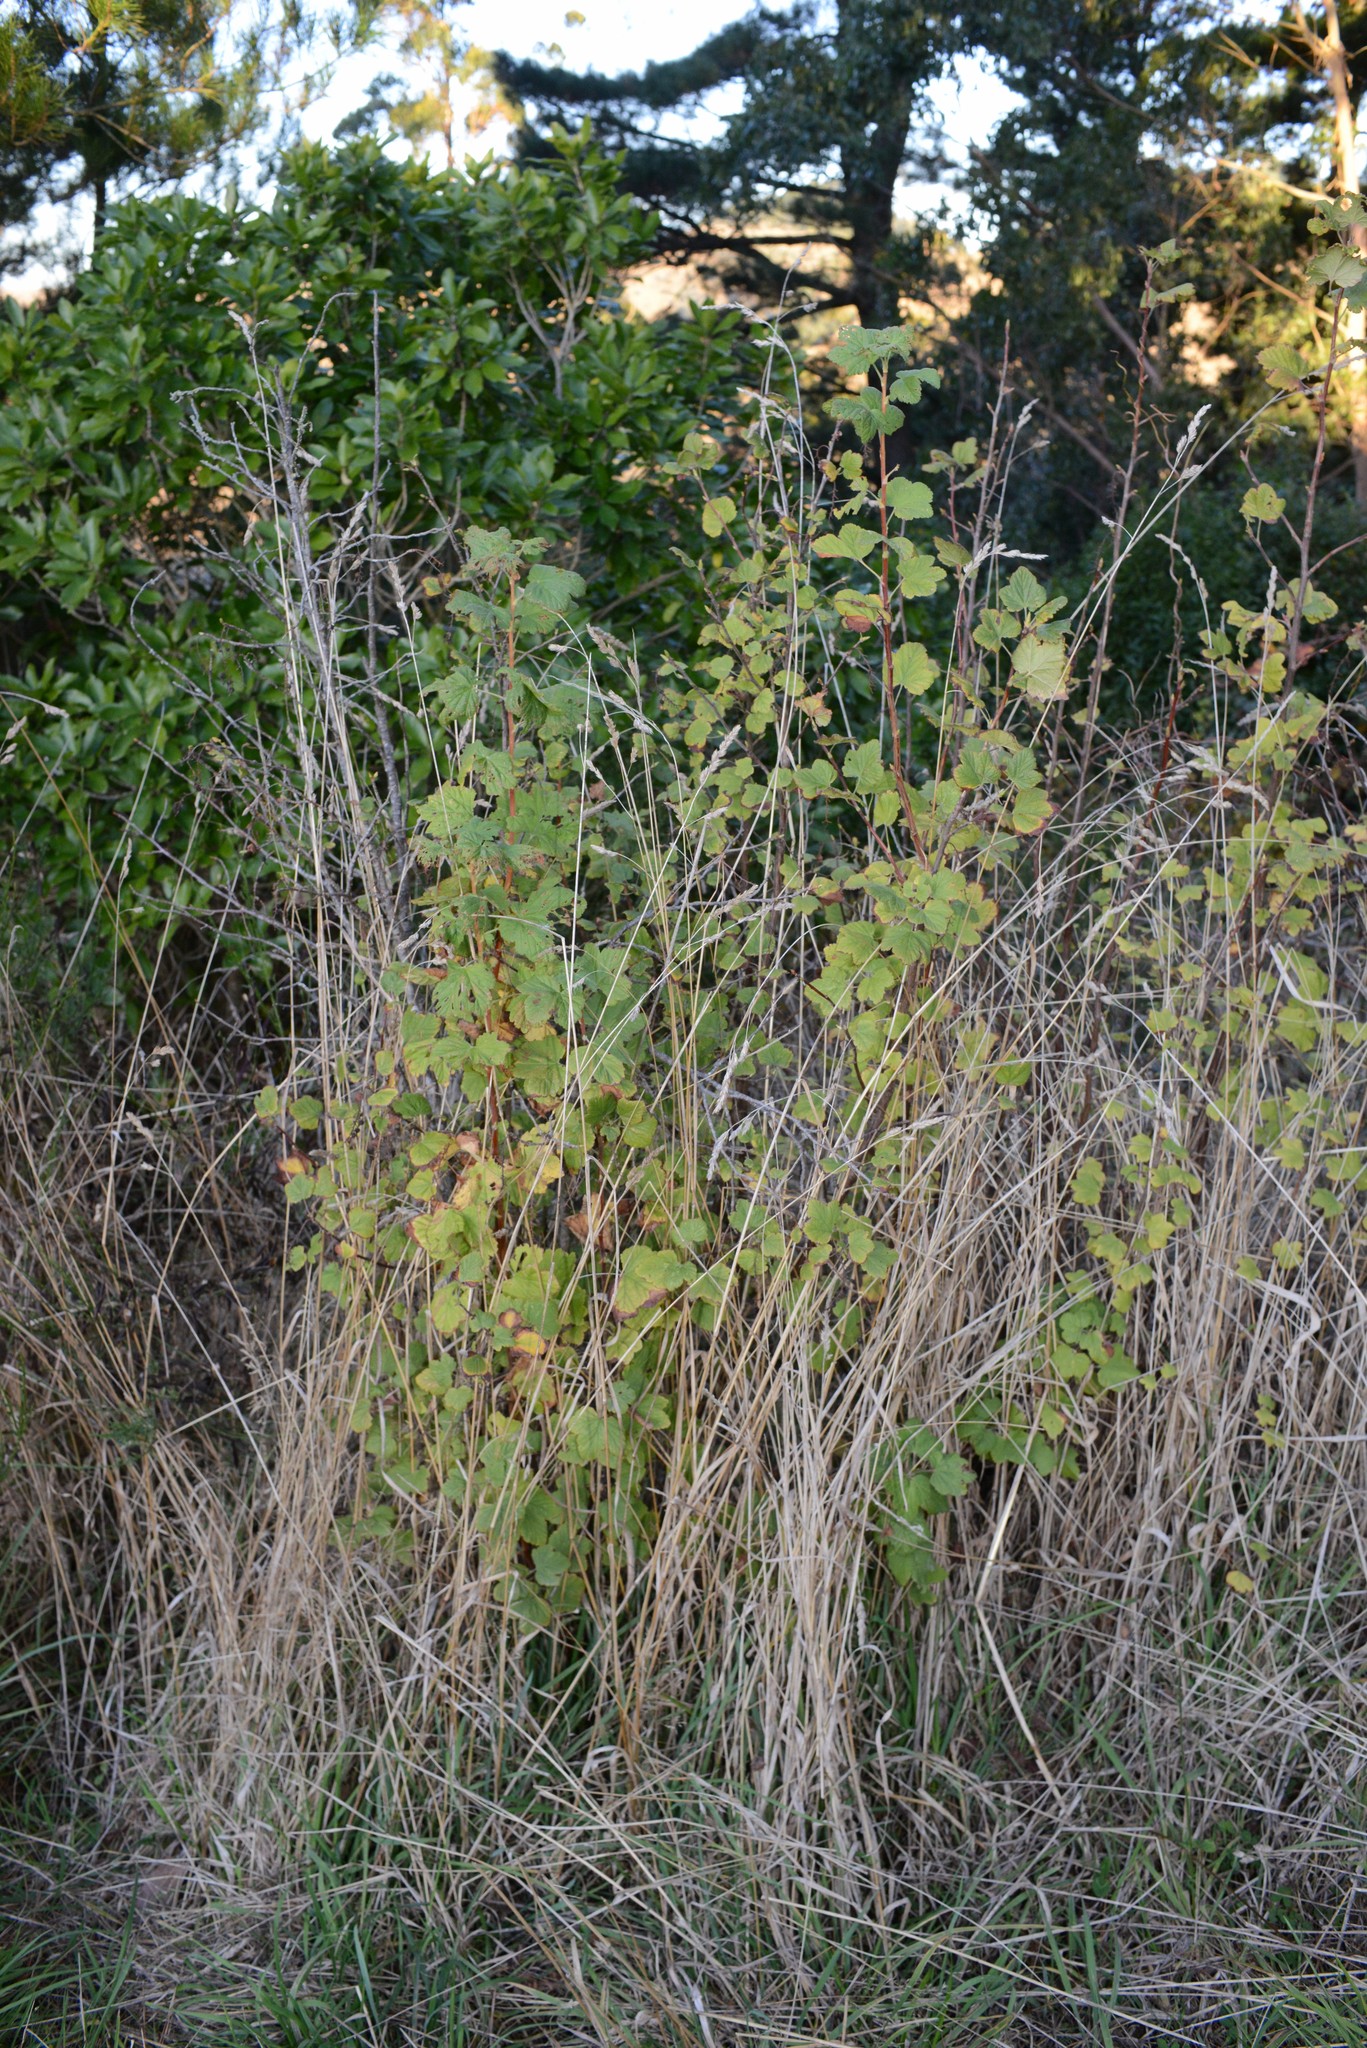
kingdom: Plantae
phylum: Tracheophyta
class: Magnoliopsida
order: Saxifragales
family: Grossulariaceae
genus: Ribes
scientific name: Ribes sanguineum
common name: Flowering currant
